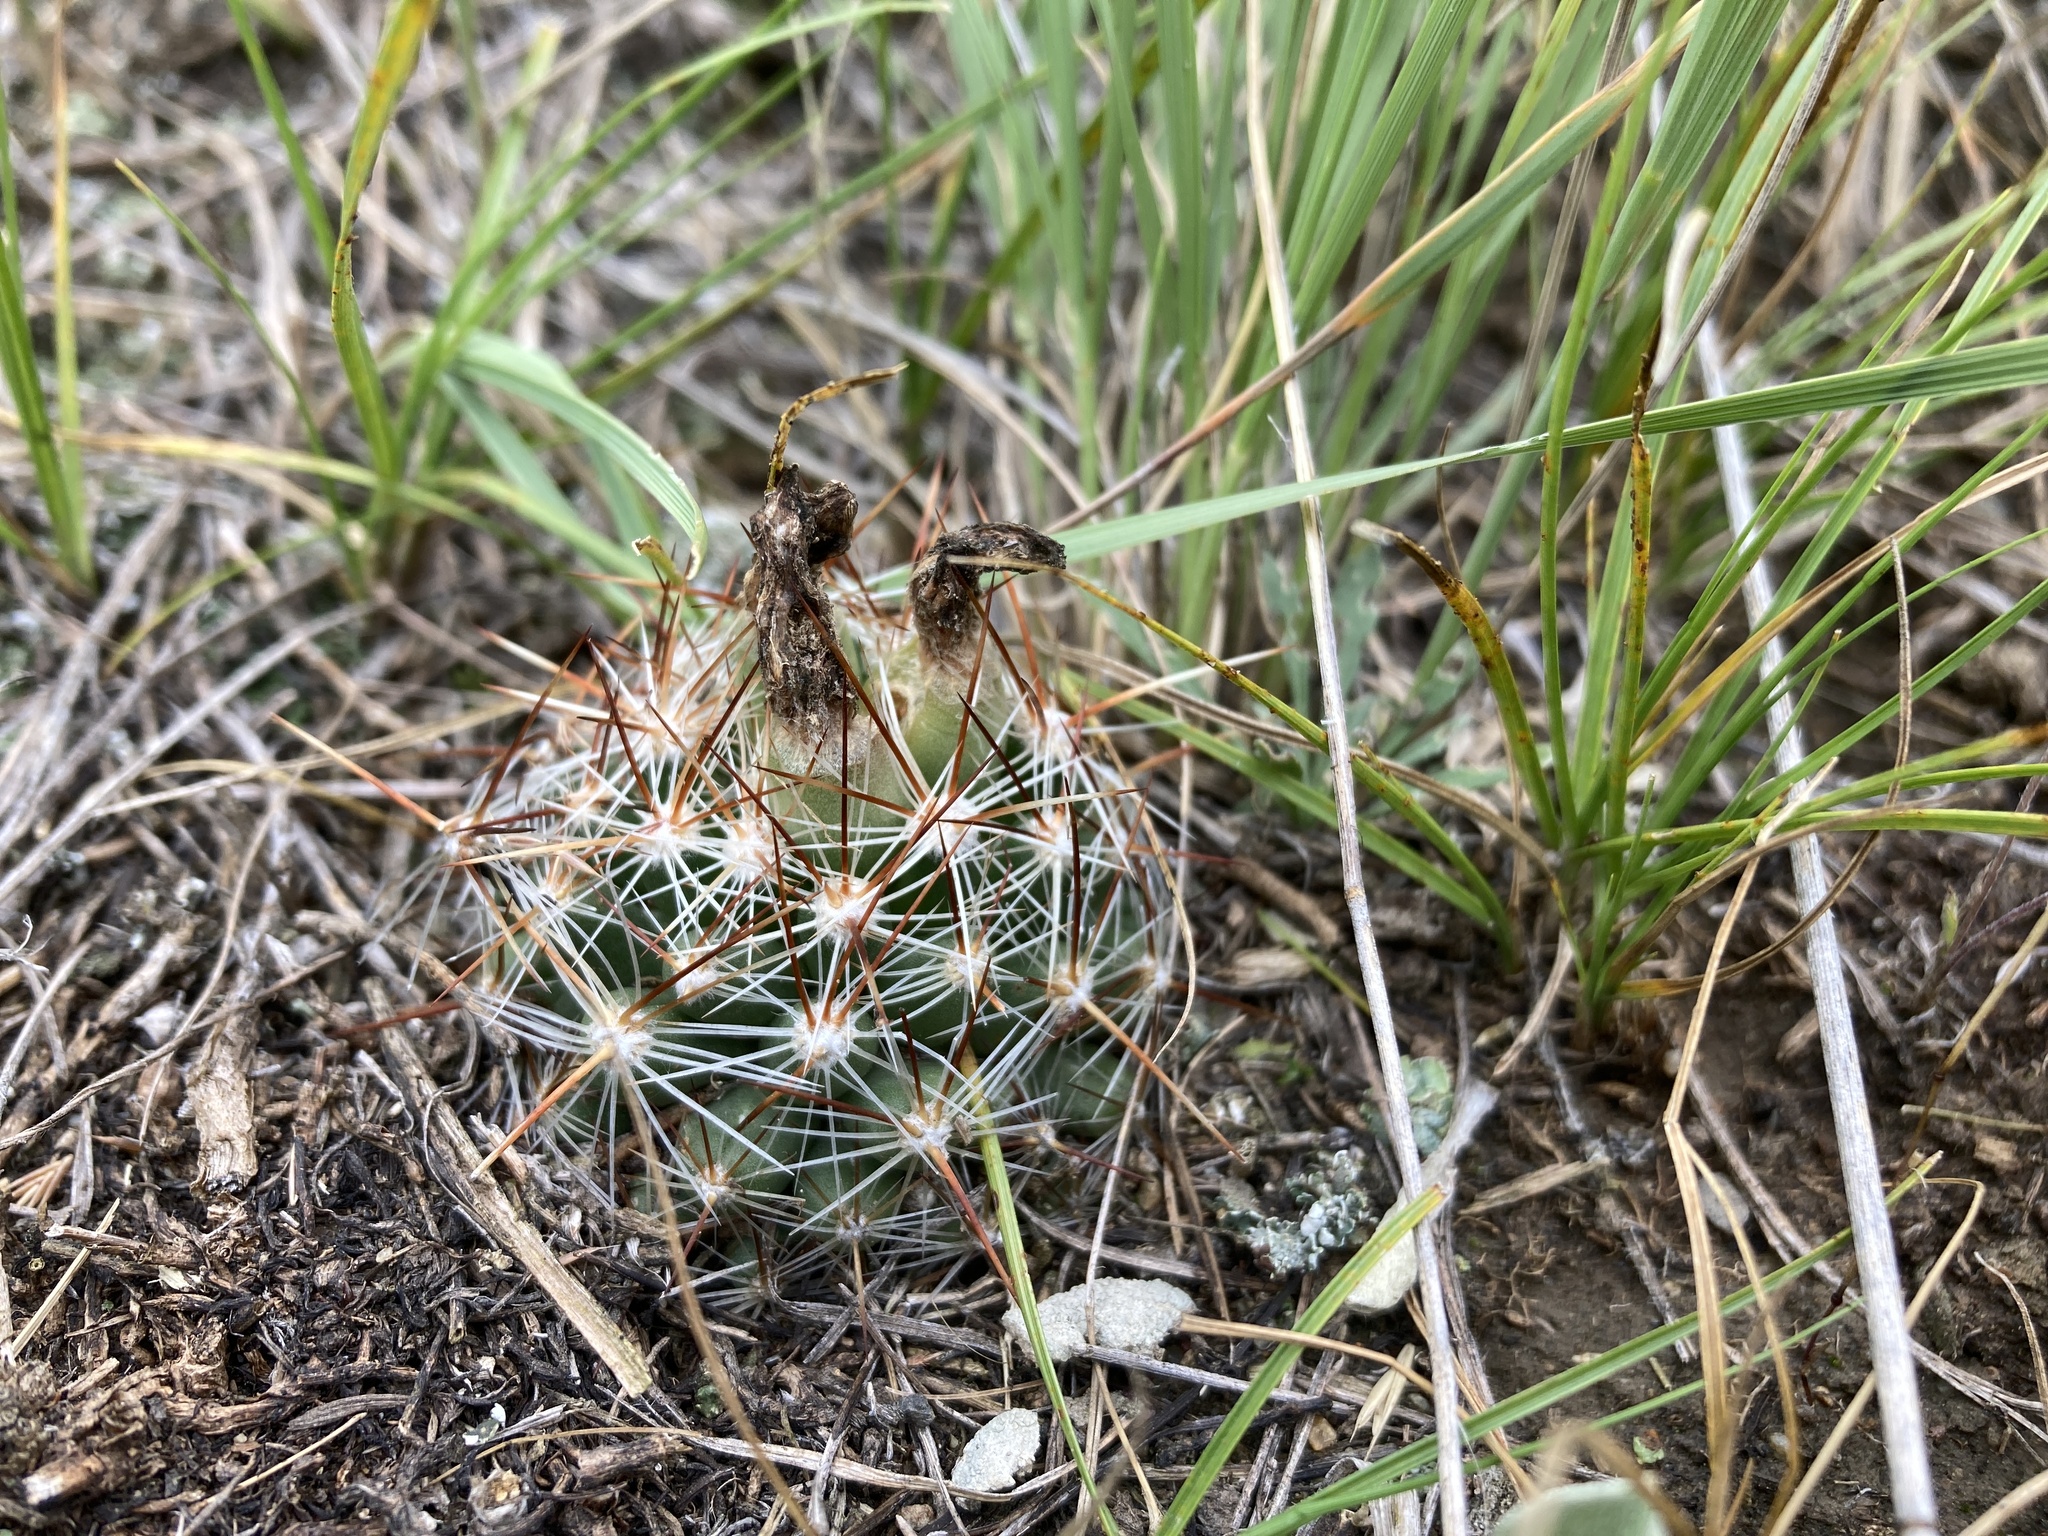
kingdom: Plantae
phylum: Tracheophyta
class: Magnoliopsida
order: Caryophyllales
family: Cactaceae
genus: Pelecyphora
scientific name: Pelecyphora vivipara
